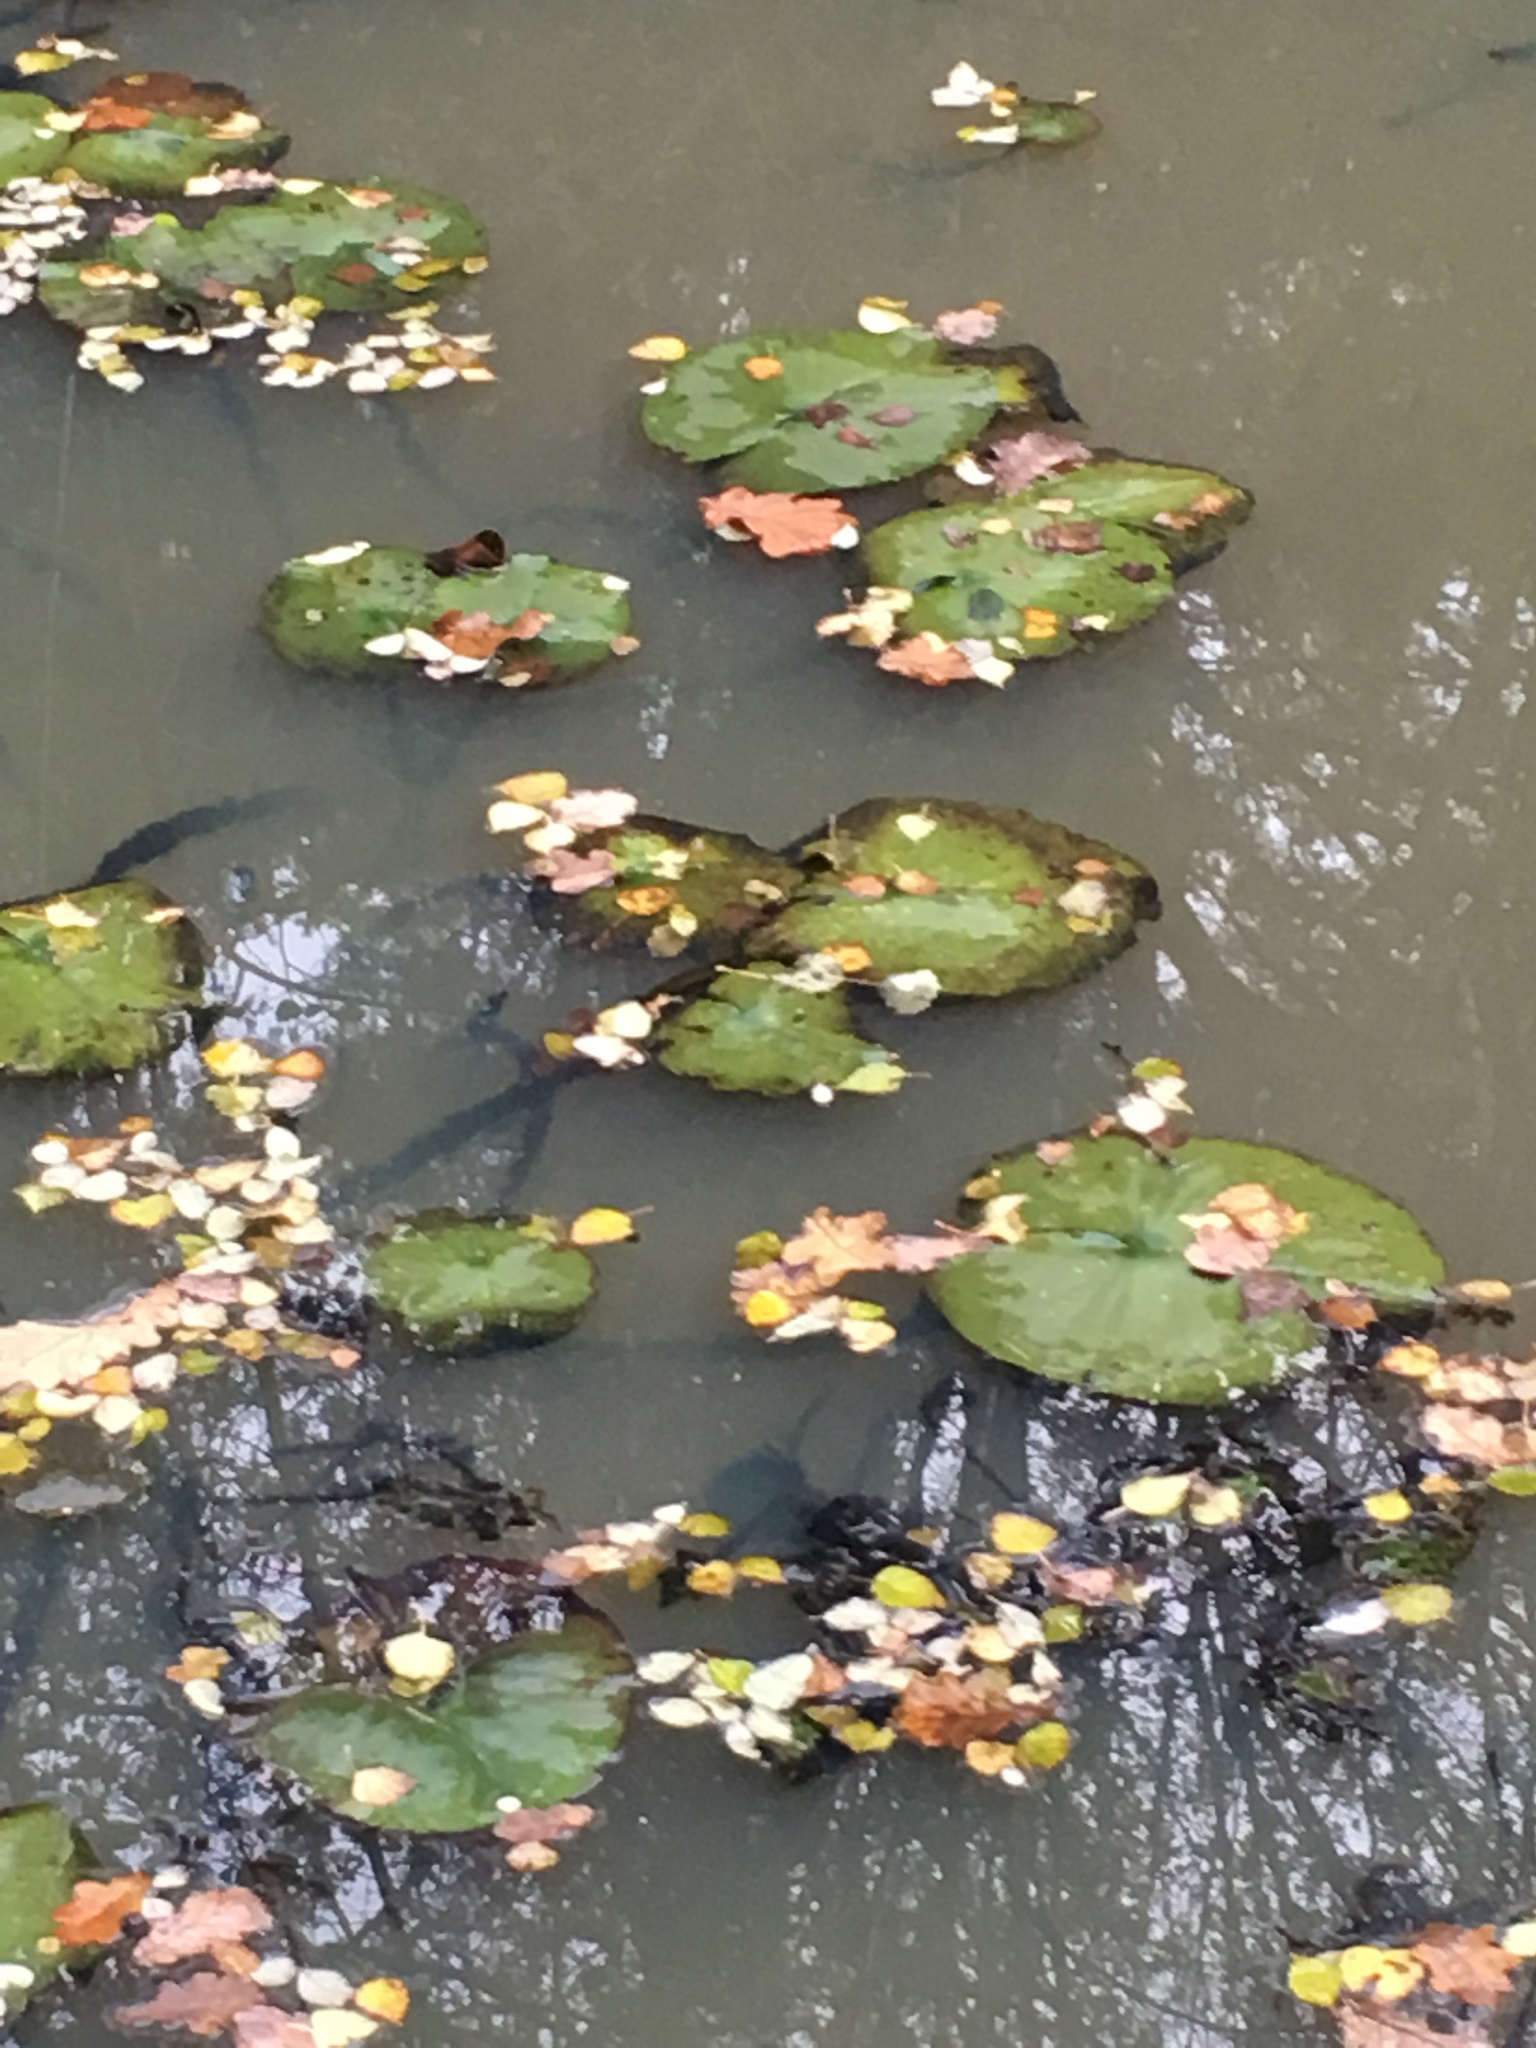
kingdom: Plantae
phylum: Tracheophyta
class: Magnoliopsida
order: Nymphaeales
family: Nymphaeaceae
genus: Nuphar
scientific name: Nuphar lutea
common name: Yellow water-lily
